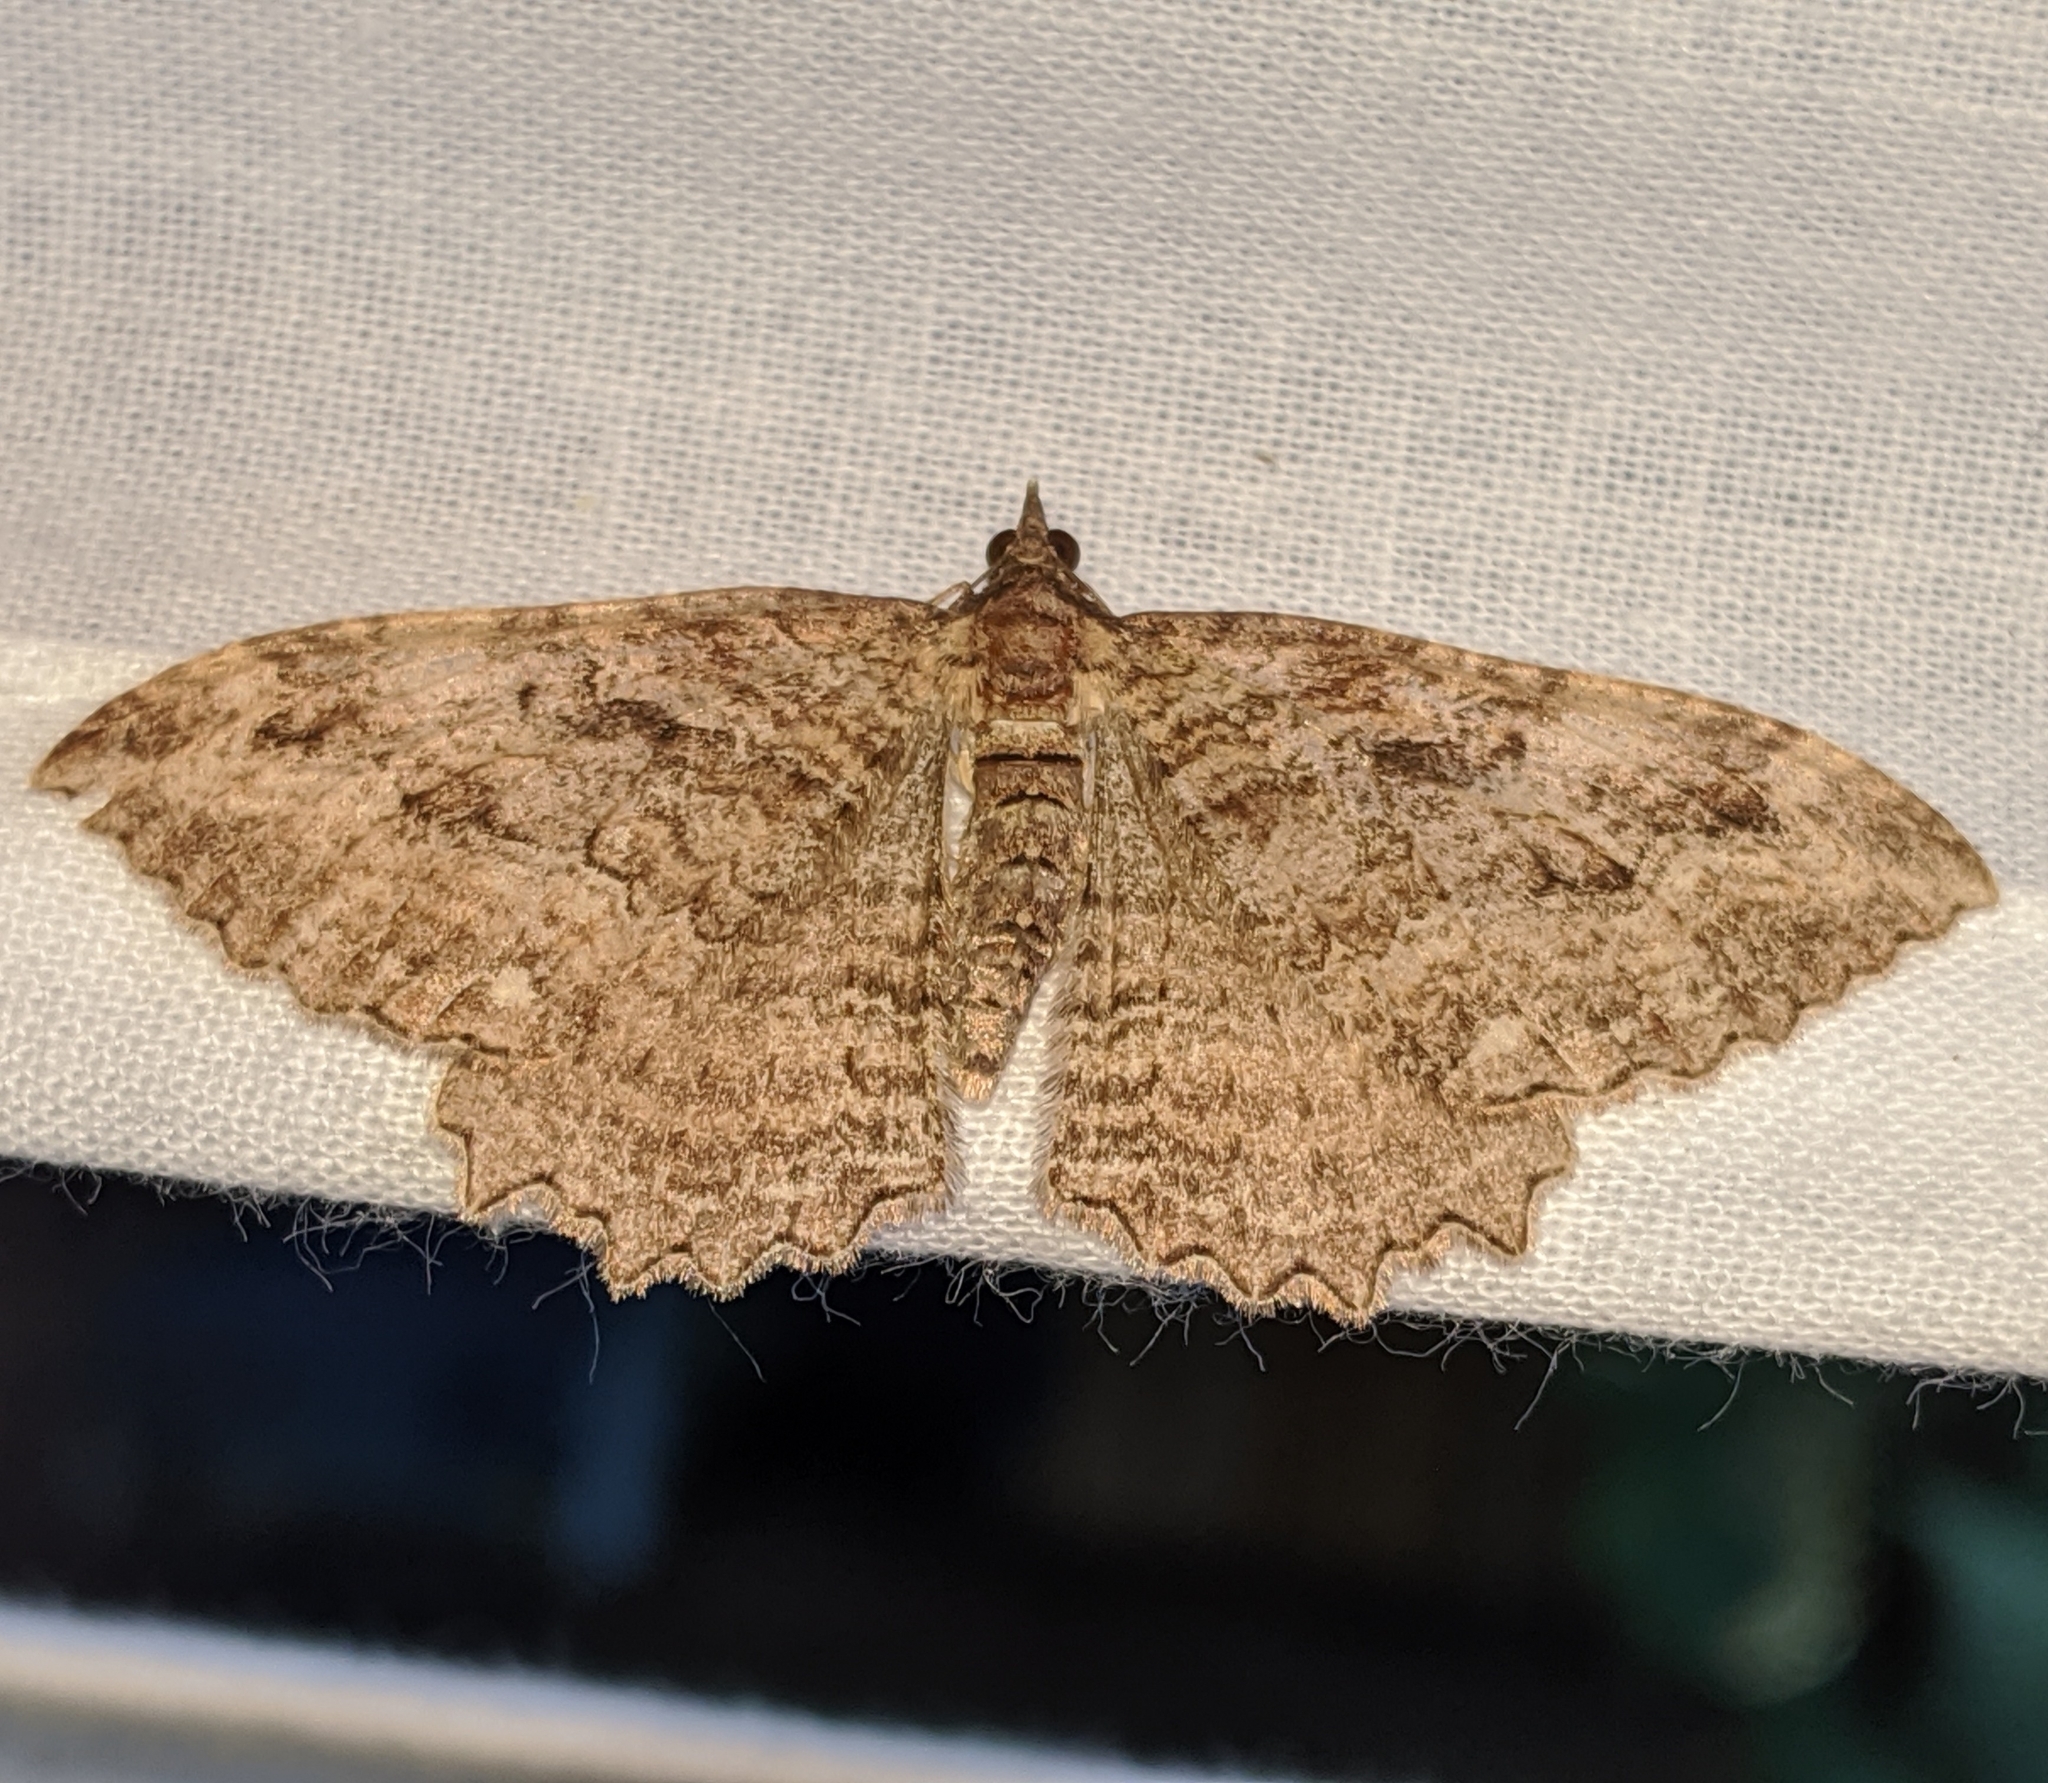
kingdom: Animalia
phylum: Arthropoda
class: Insecta
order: Lepidoptera
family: Geometridae
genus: Rheumaptera
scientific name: Rheumaptera
